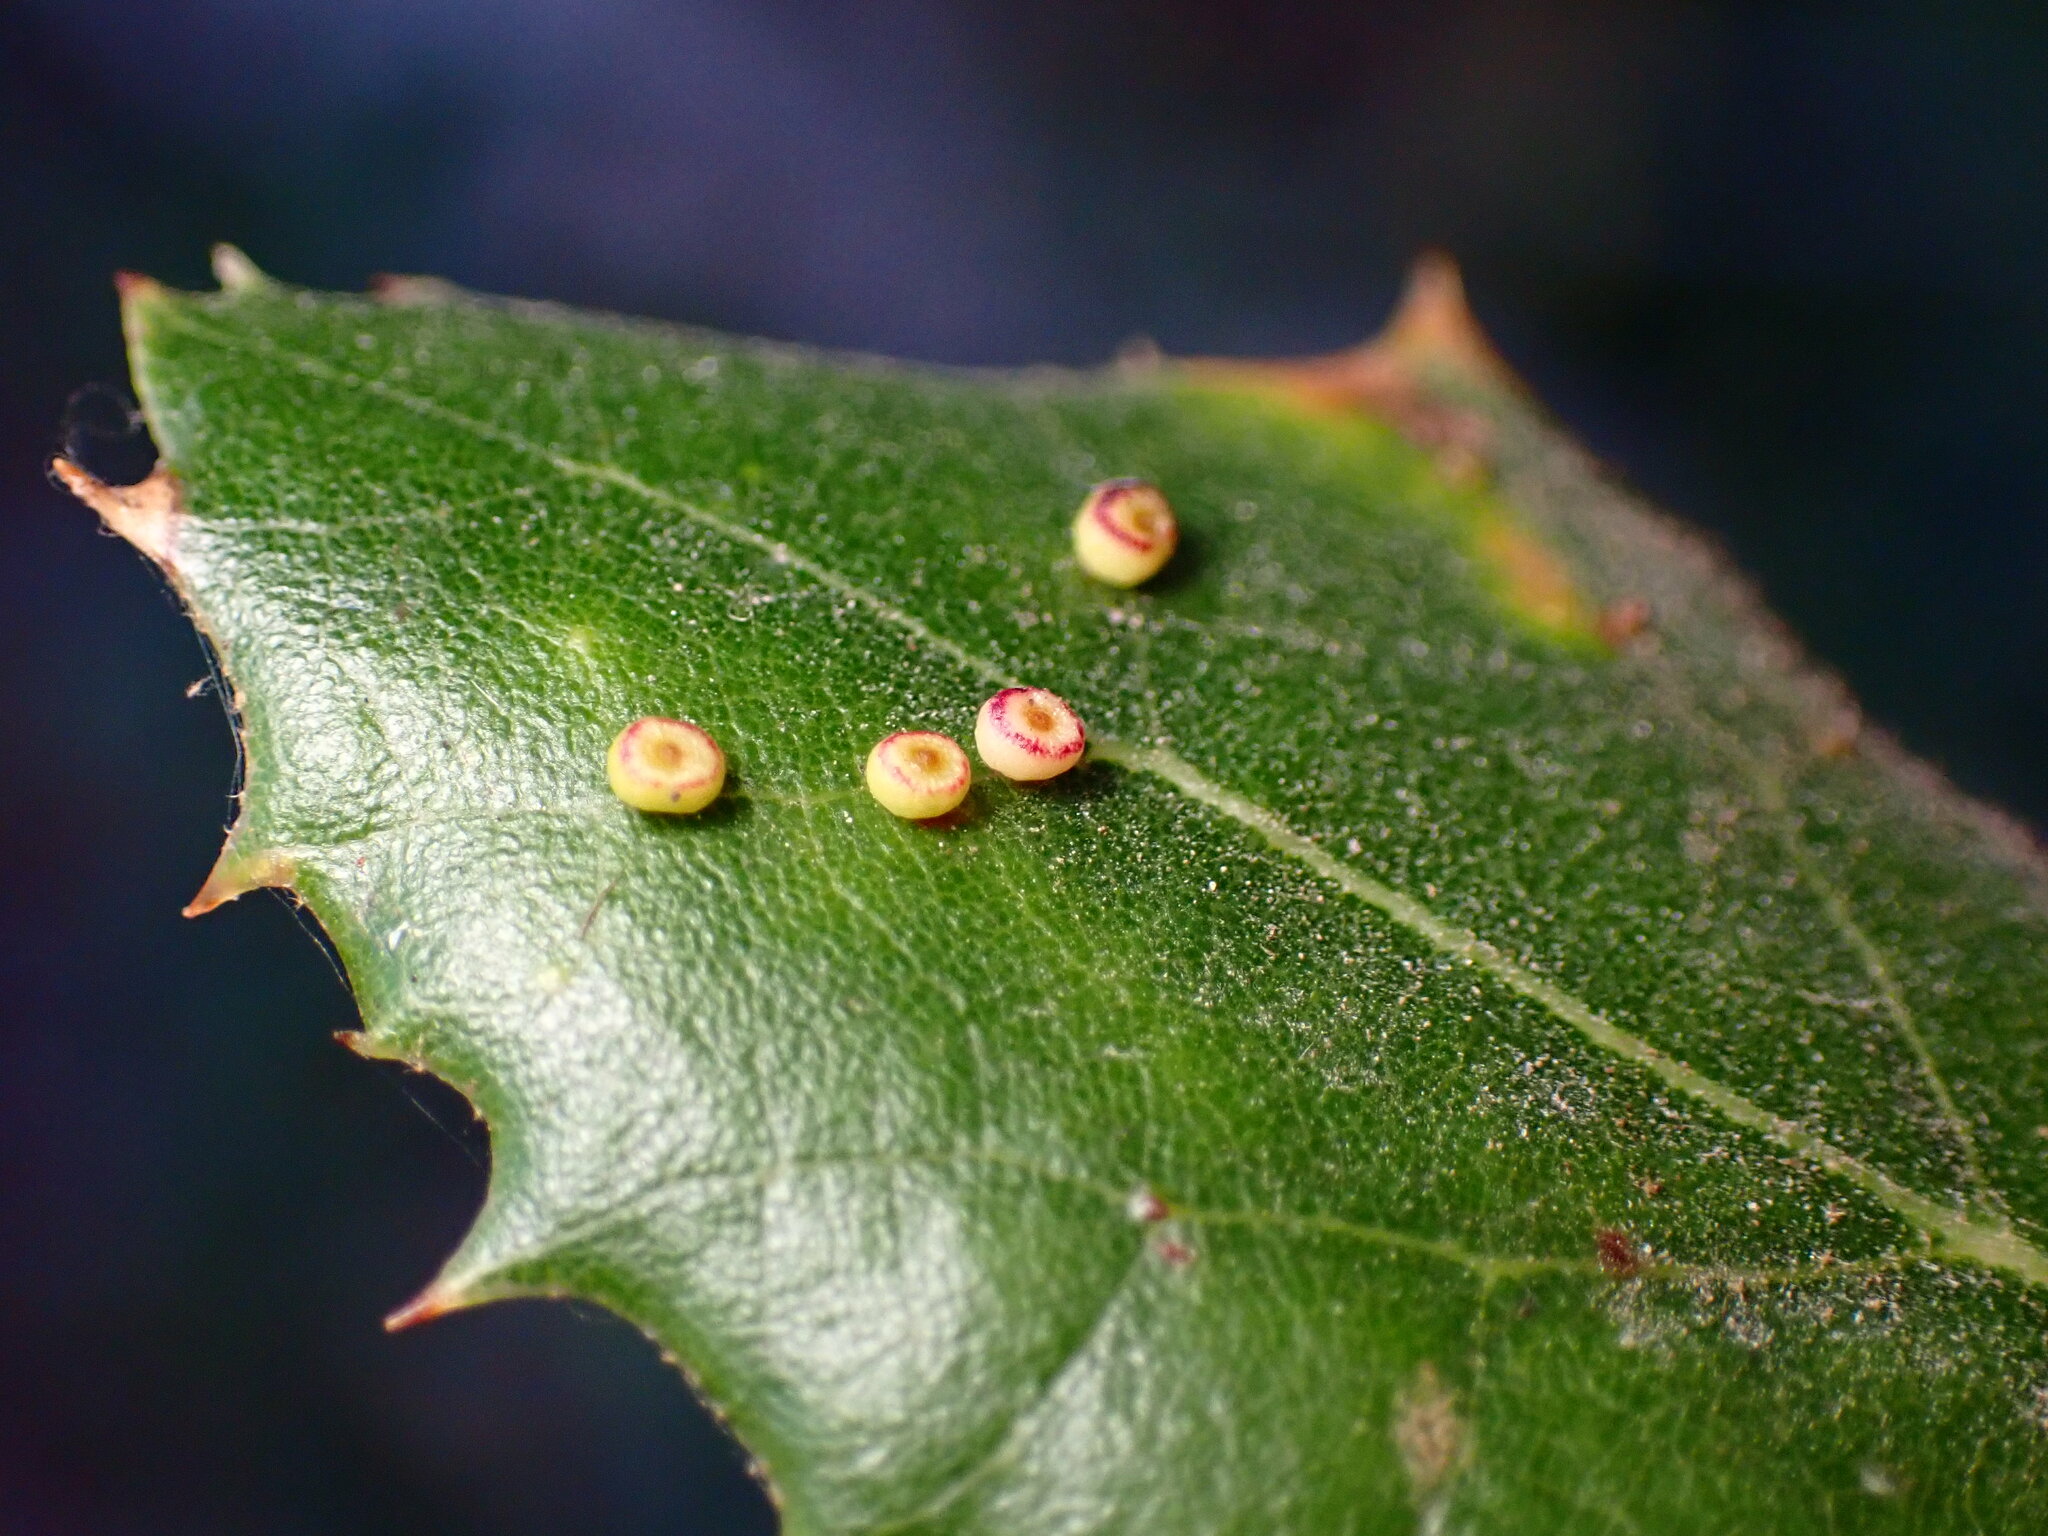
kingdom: Animalia
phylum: Arthropoda
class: Insecta
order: Hymenoptera
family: Cynipidae
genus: Dryocosmus
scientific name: Dryocosmus
